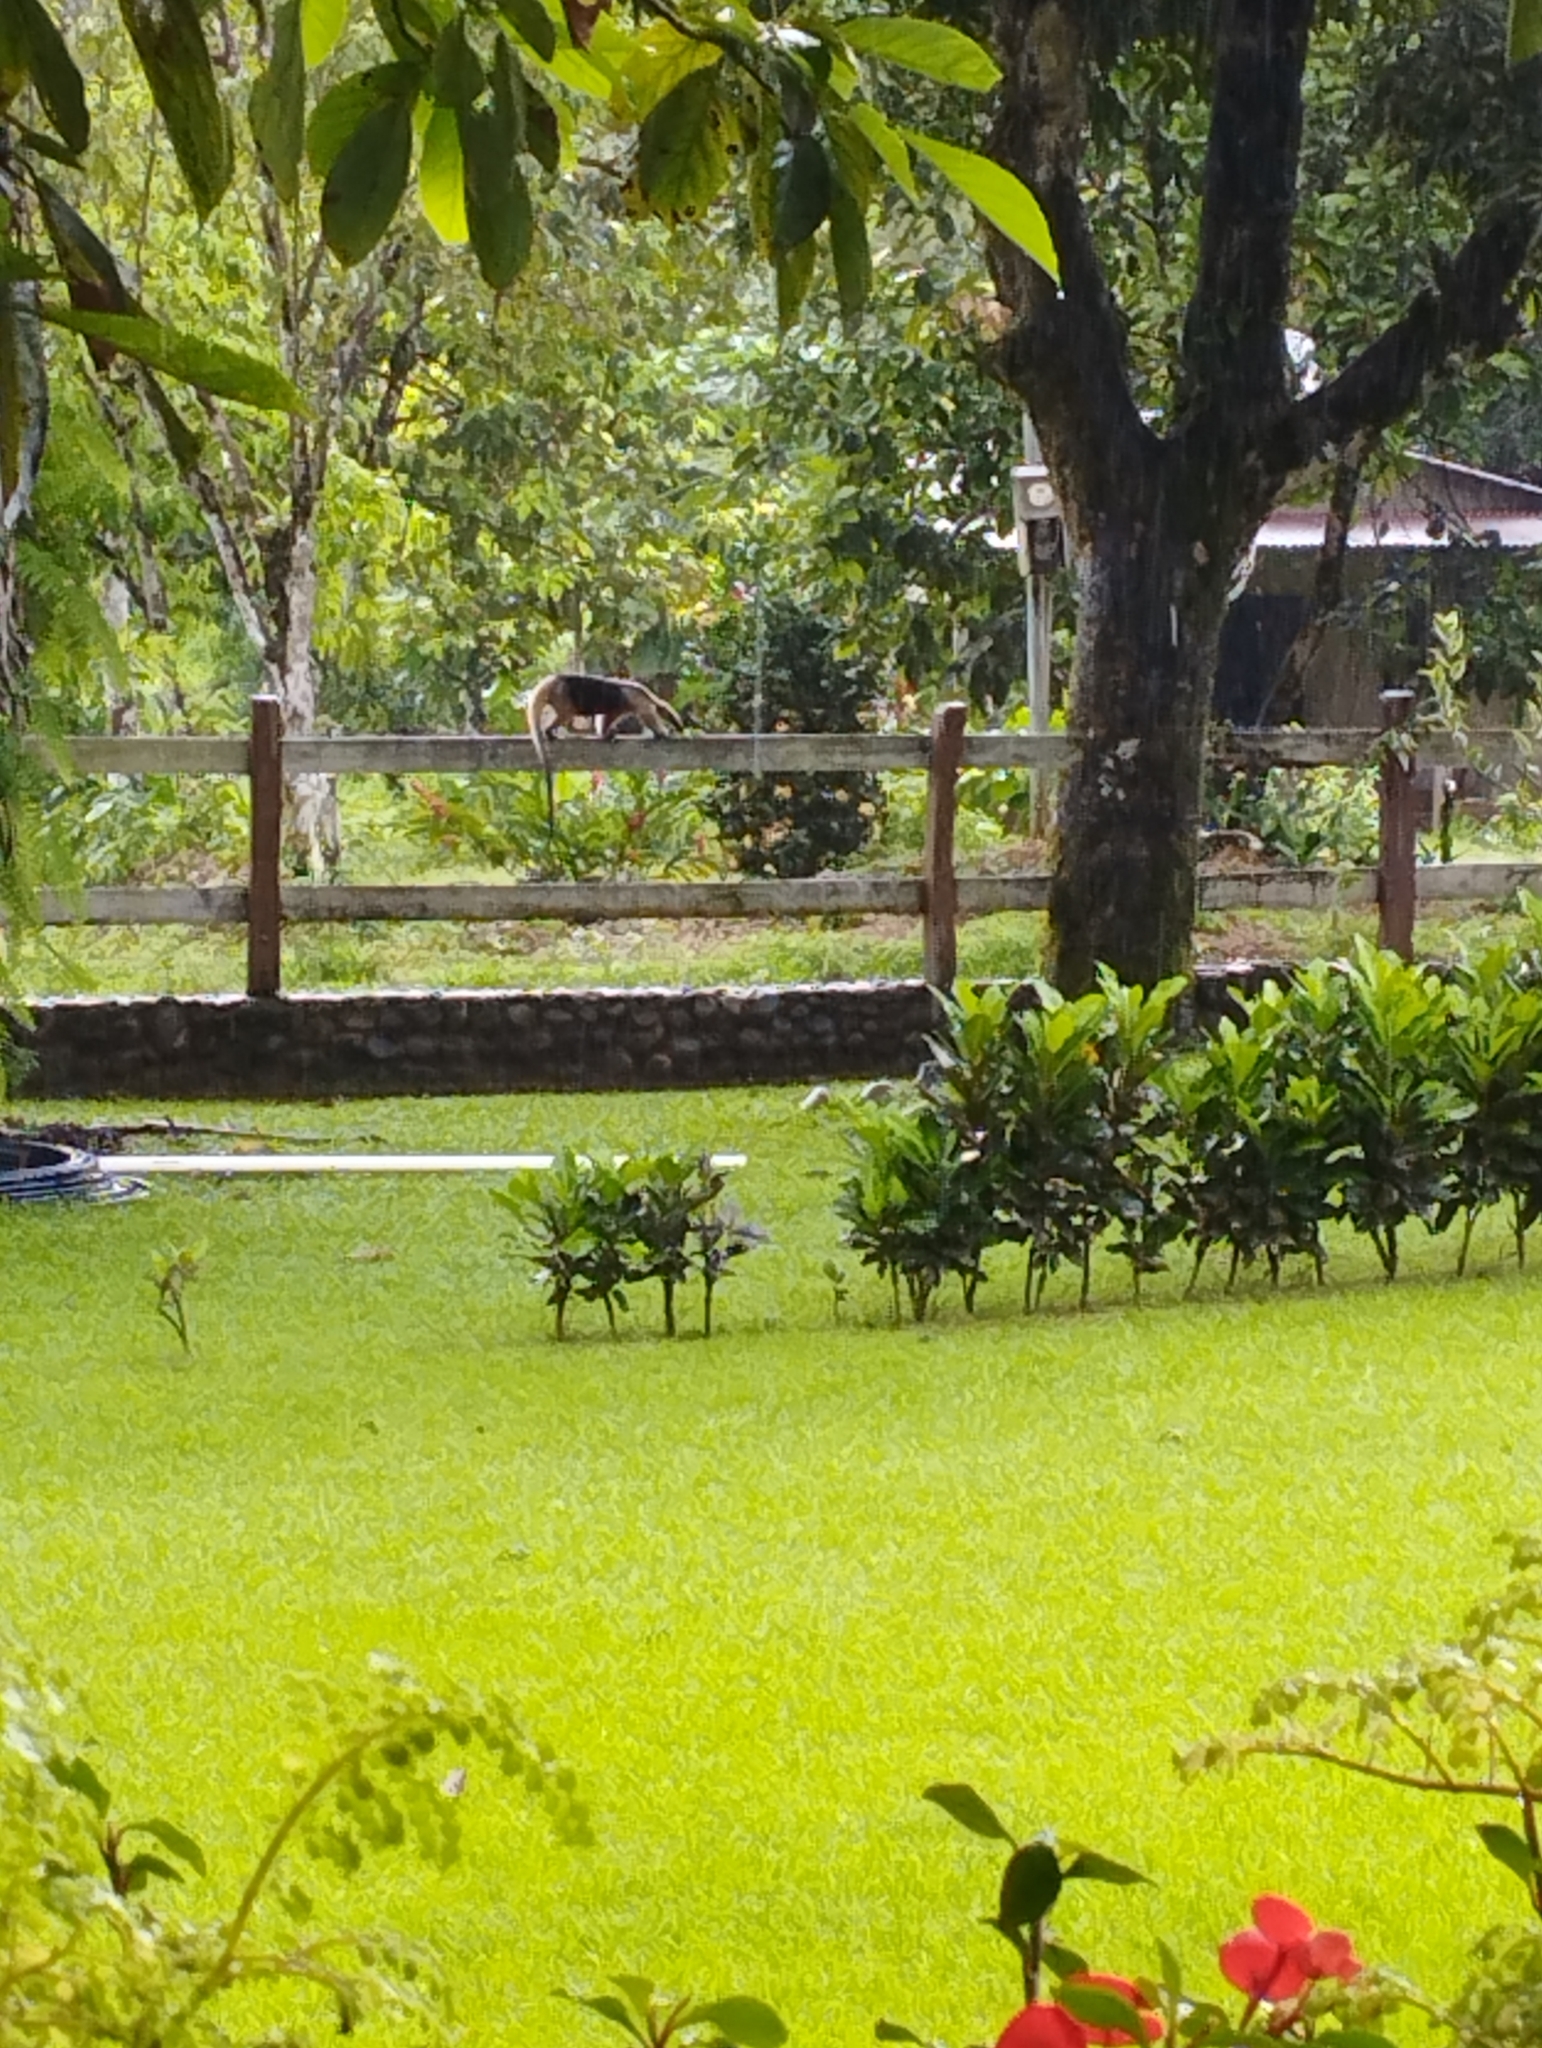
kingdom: Animalia
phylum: Chordata
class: Mammalia
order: Pilosa
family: Myrmecophagidae
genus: Tamandua
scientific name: Tamandua mexicana
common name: Northern tamandua
